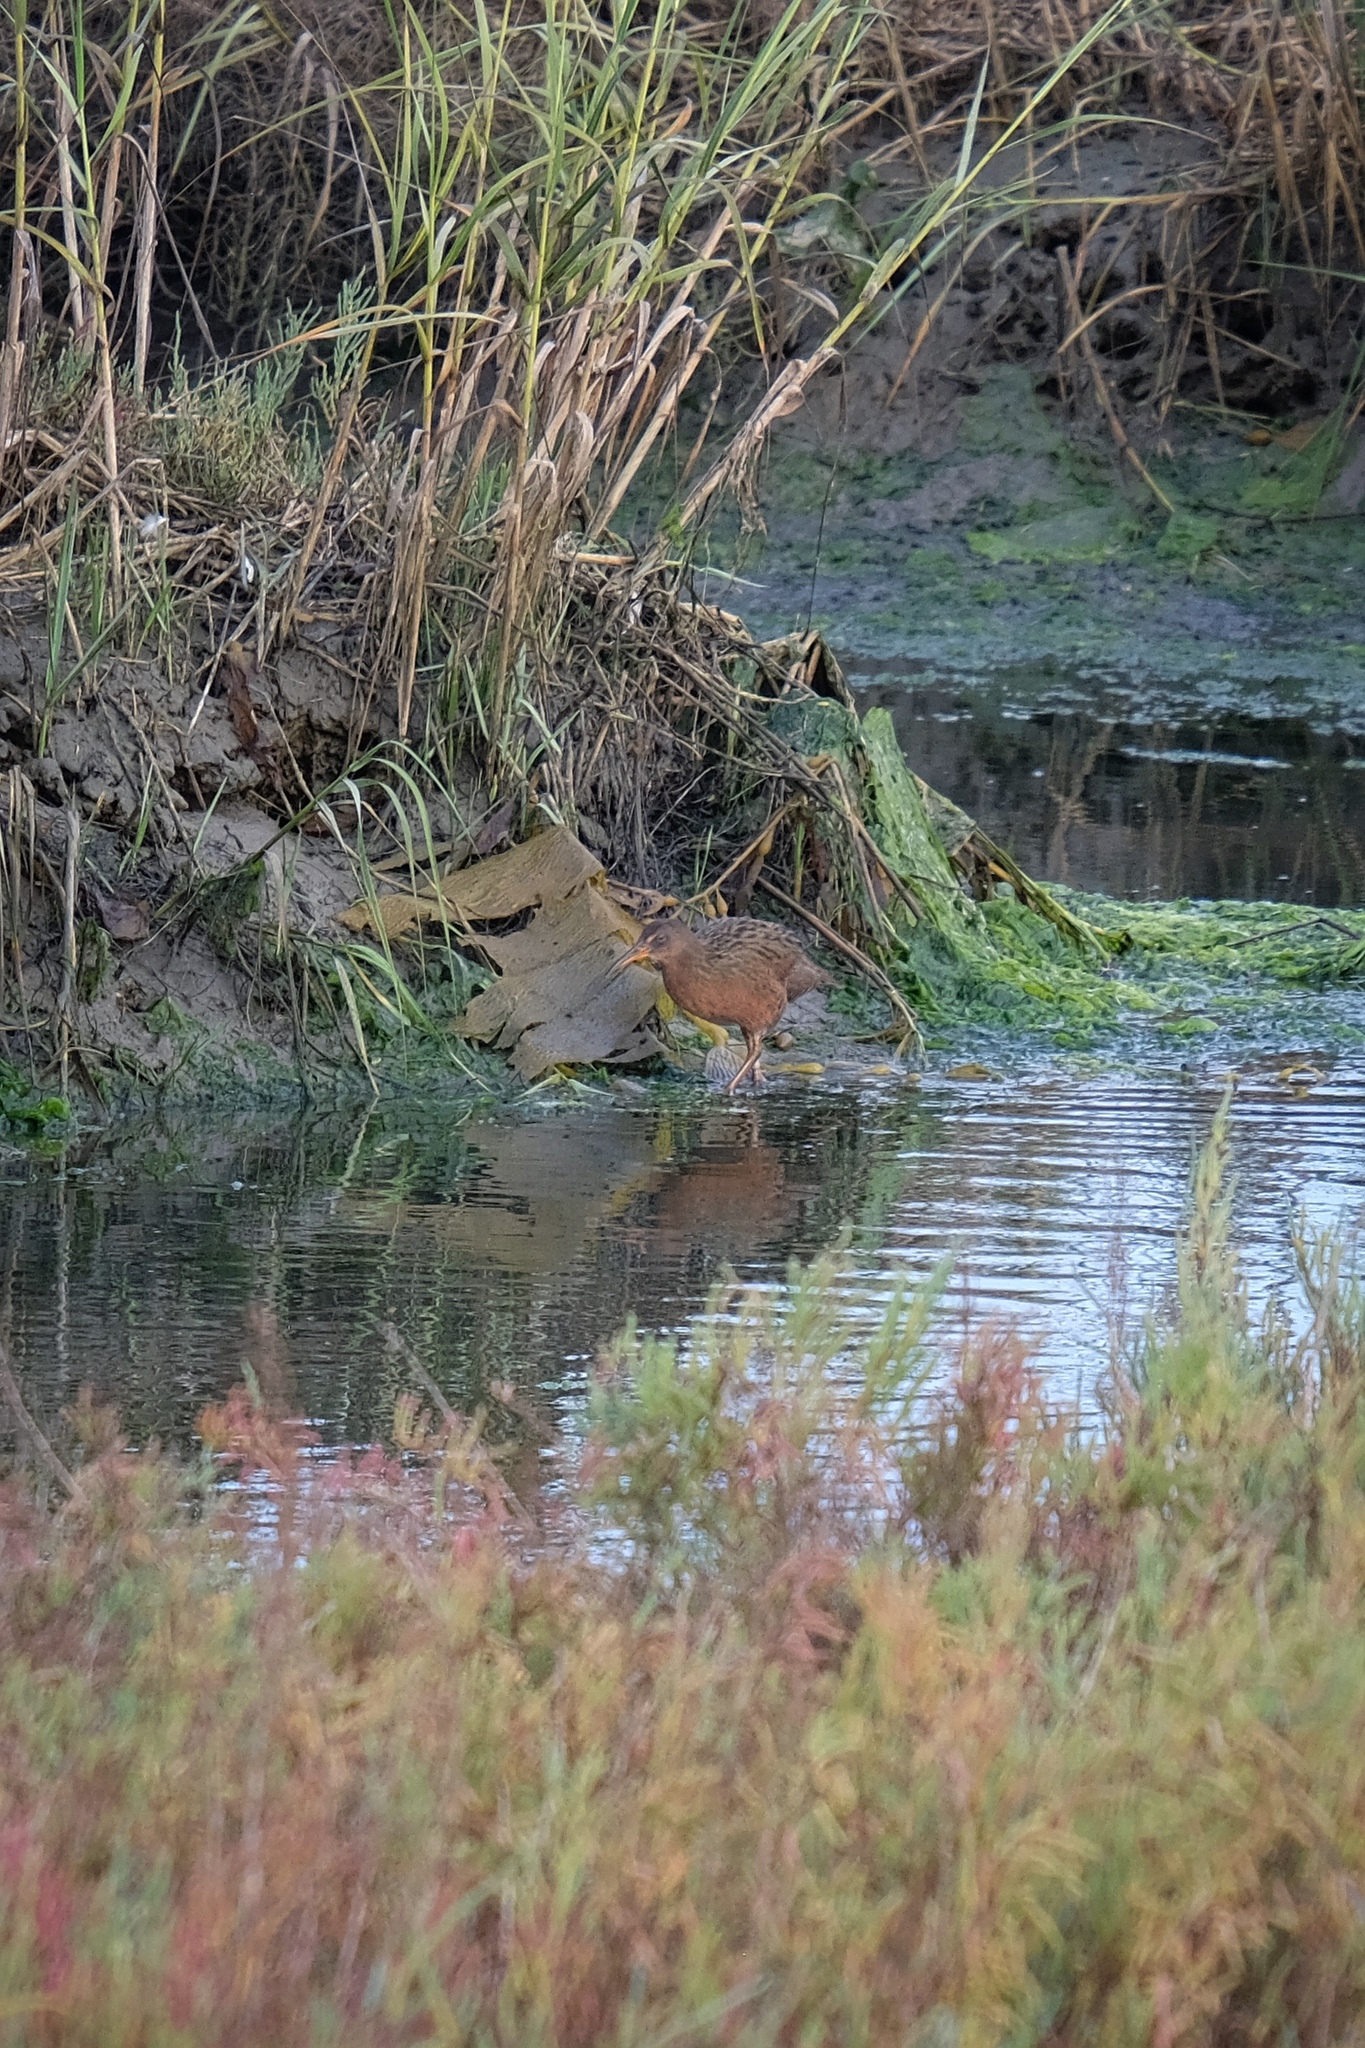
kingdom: Animalia
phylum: Chordata
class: Aves
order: Gruiformes
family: Rallidae
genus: Rallus
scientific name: Rallus obsoletus
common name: Ridgway's rail
